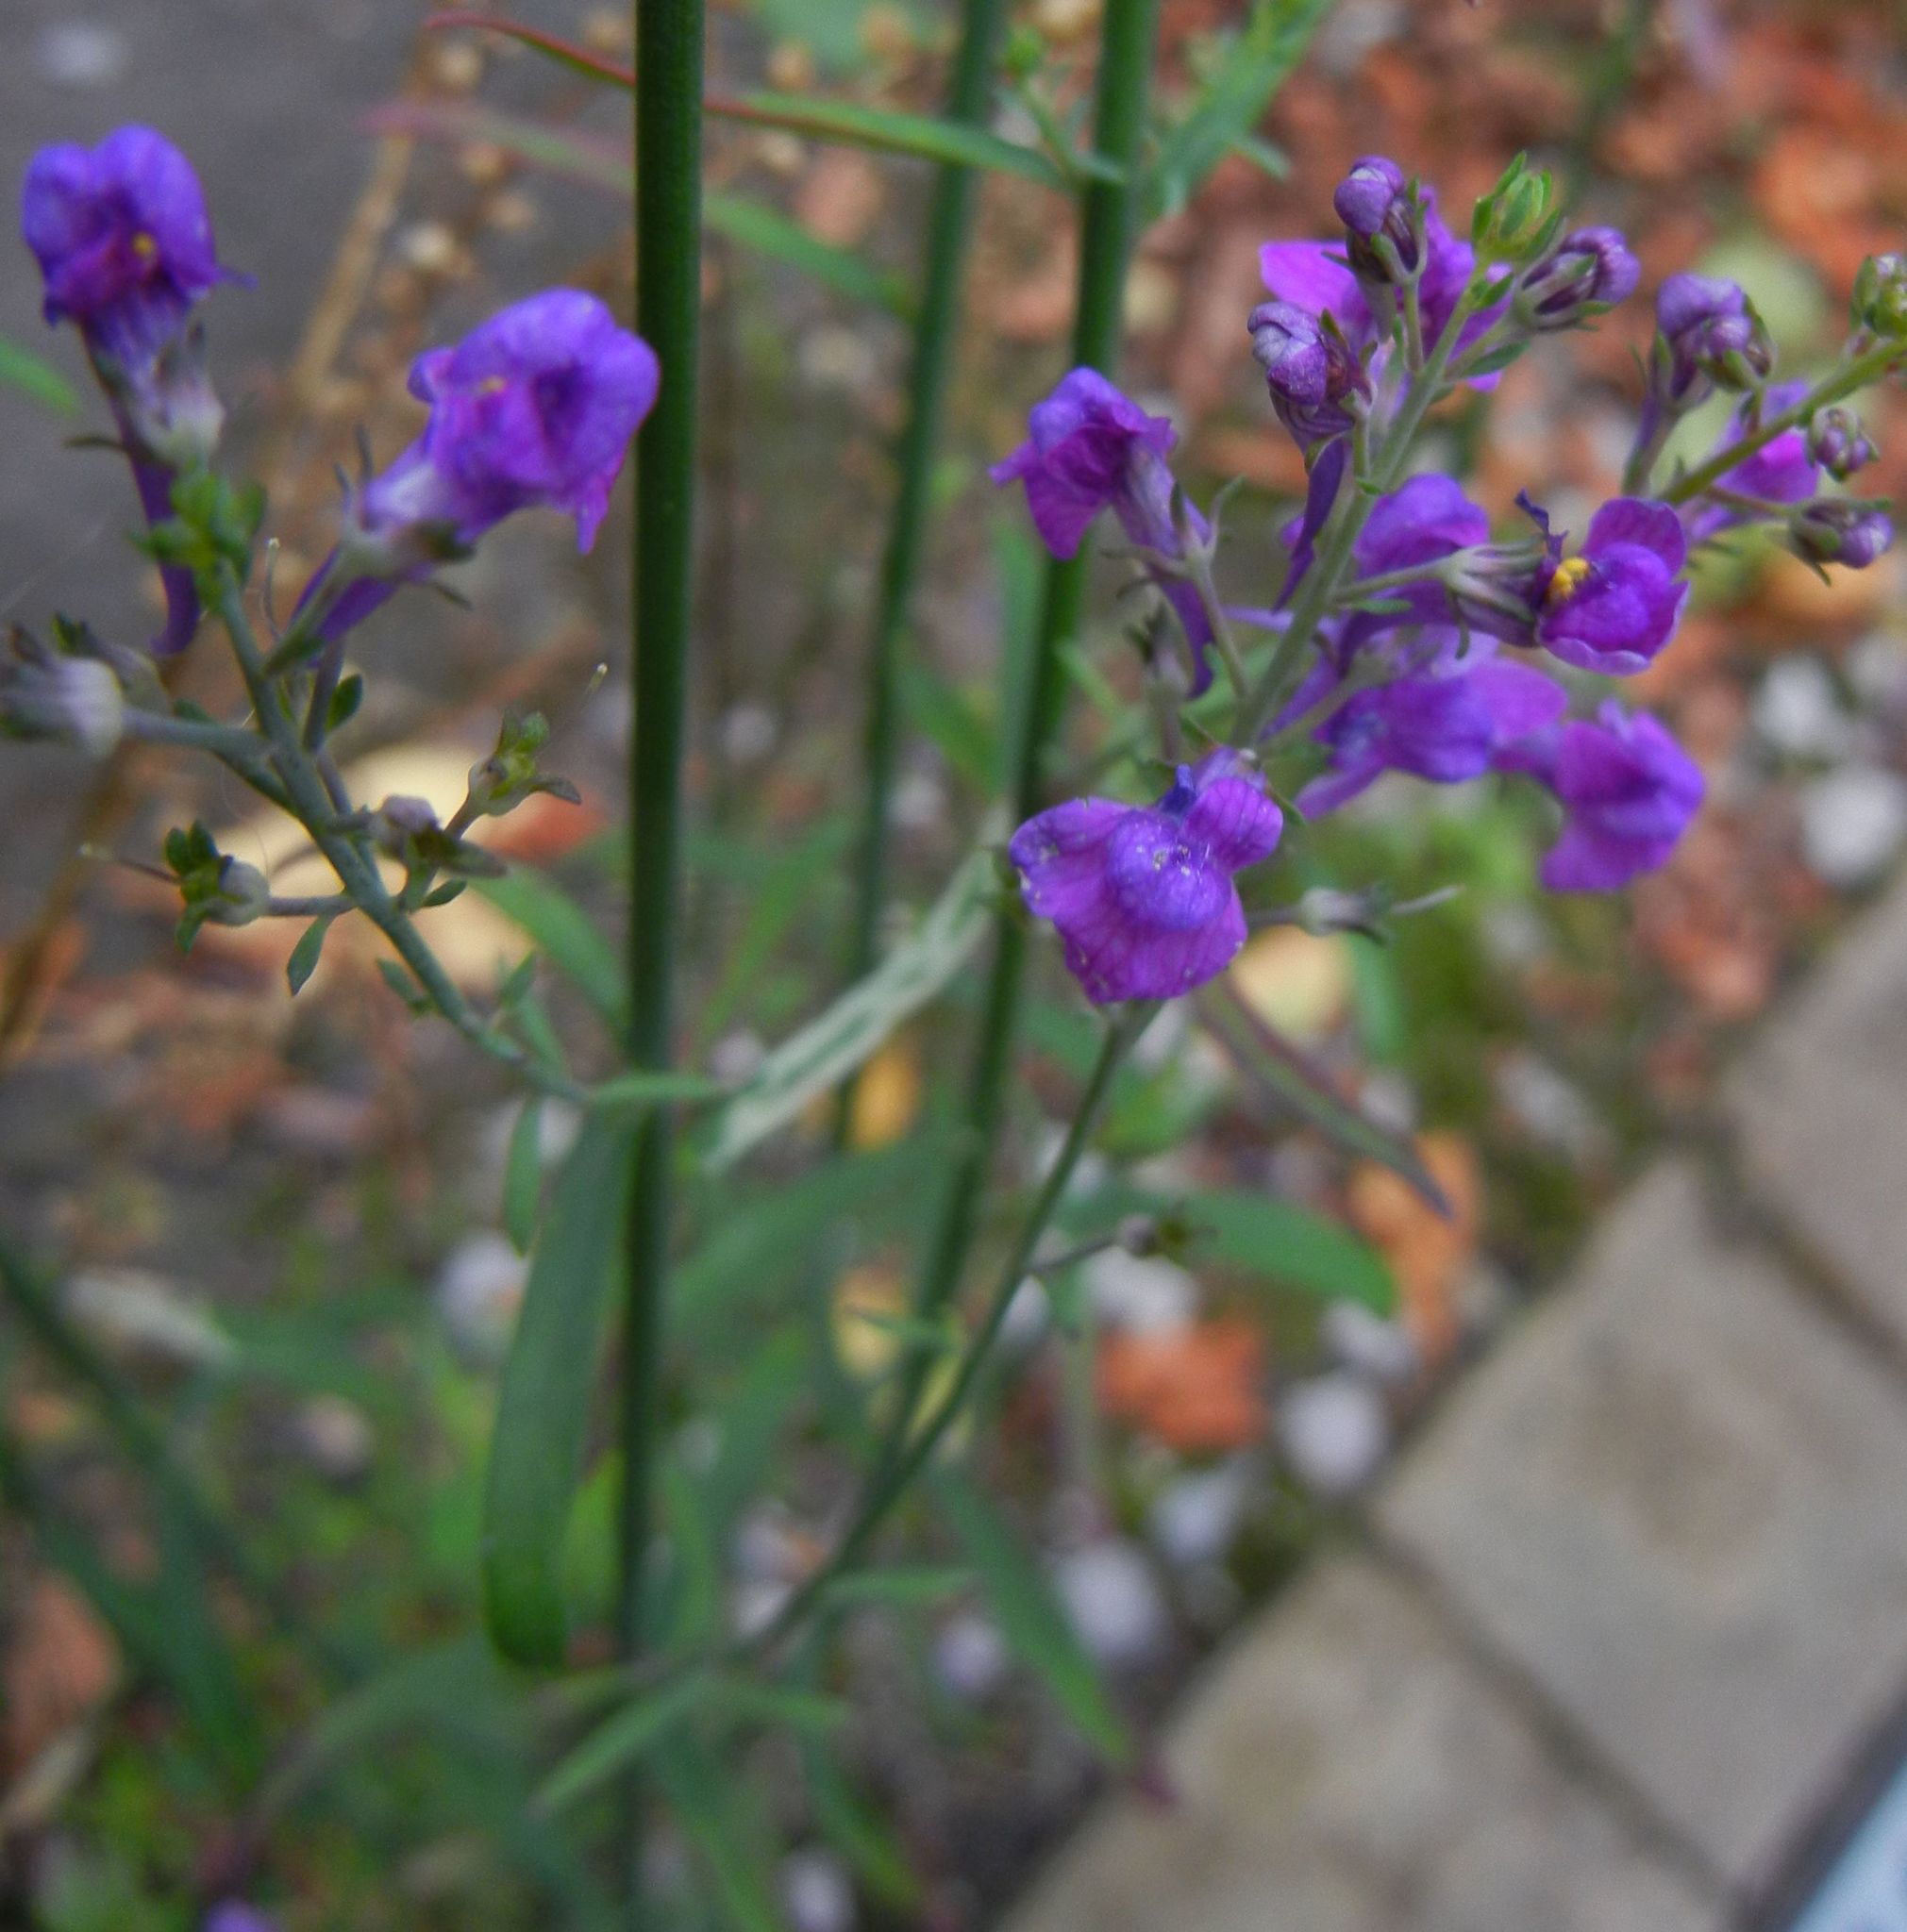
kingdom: Plantae
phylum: Tracheophyta
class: Magnoliopsida
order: Lamiales
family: Plantaginaceae
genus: Linaria
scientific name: Linaria purpurea
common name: Purple toadflax
